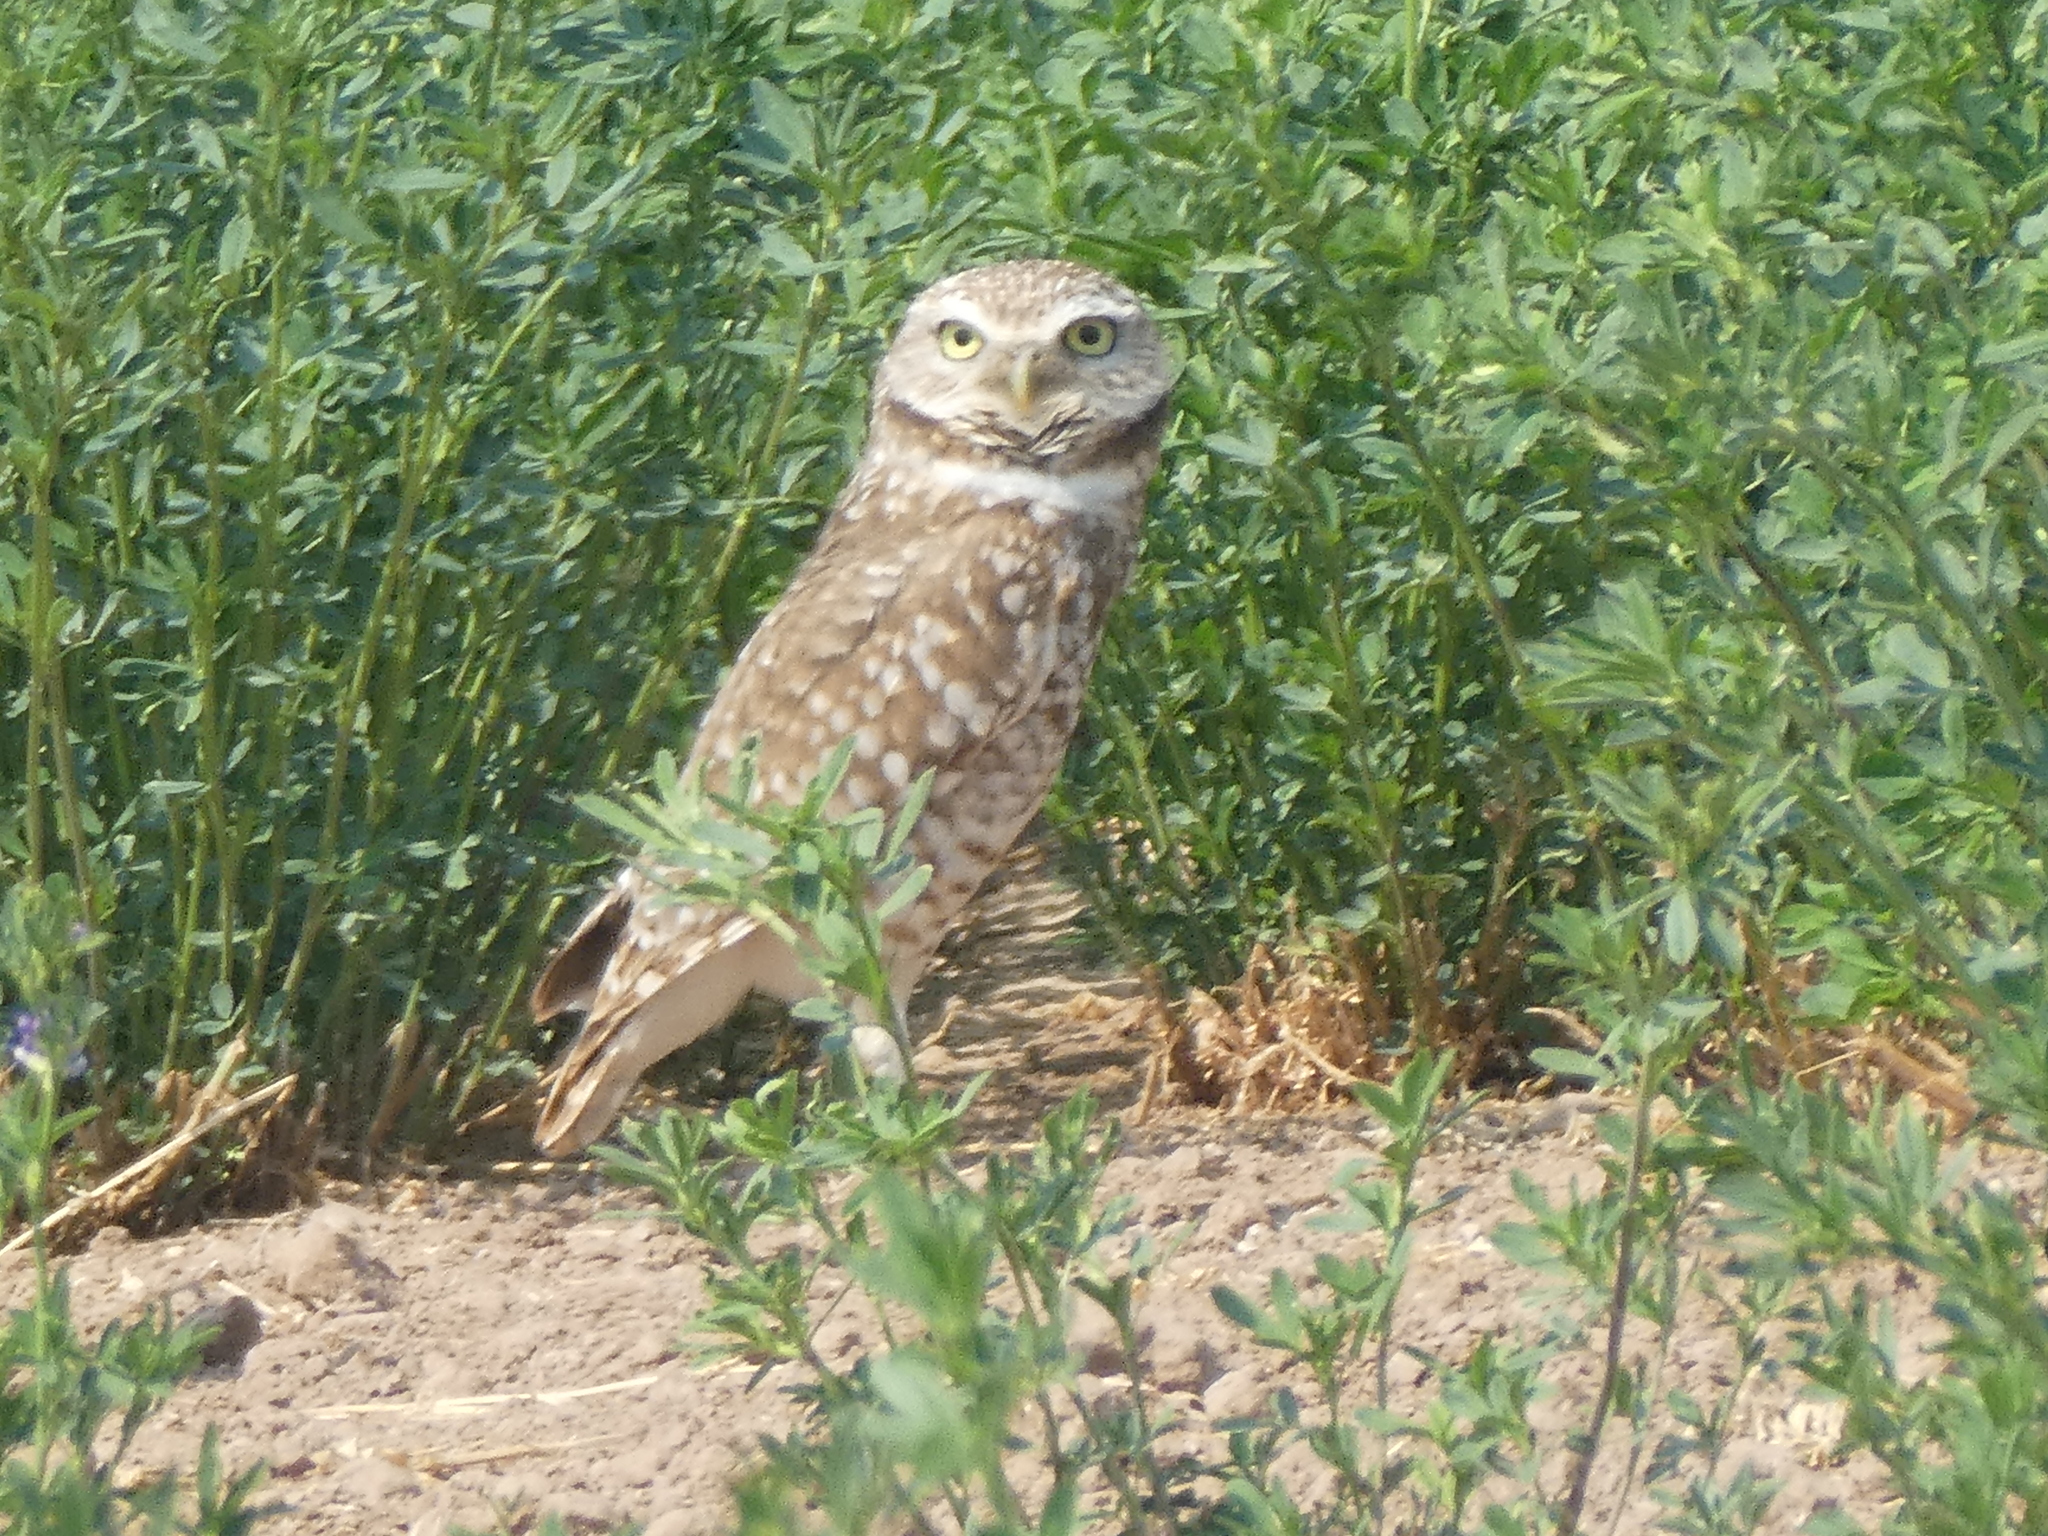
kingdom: Animalia
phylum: Chordata
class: Aves
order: Strigiformes
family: Strigidae
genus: Athene
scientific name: Athene cunicularia
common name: Burrowing owl
